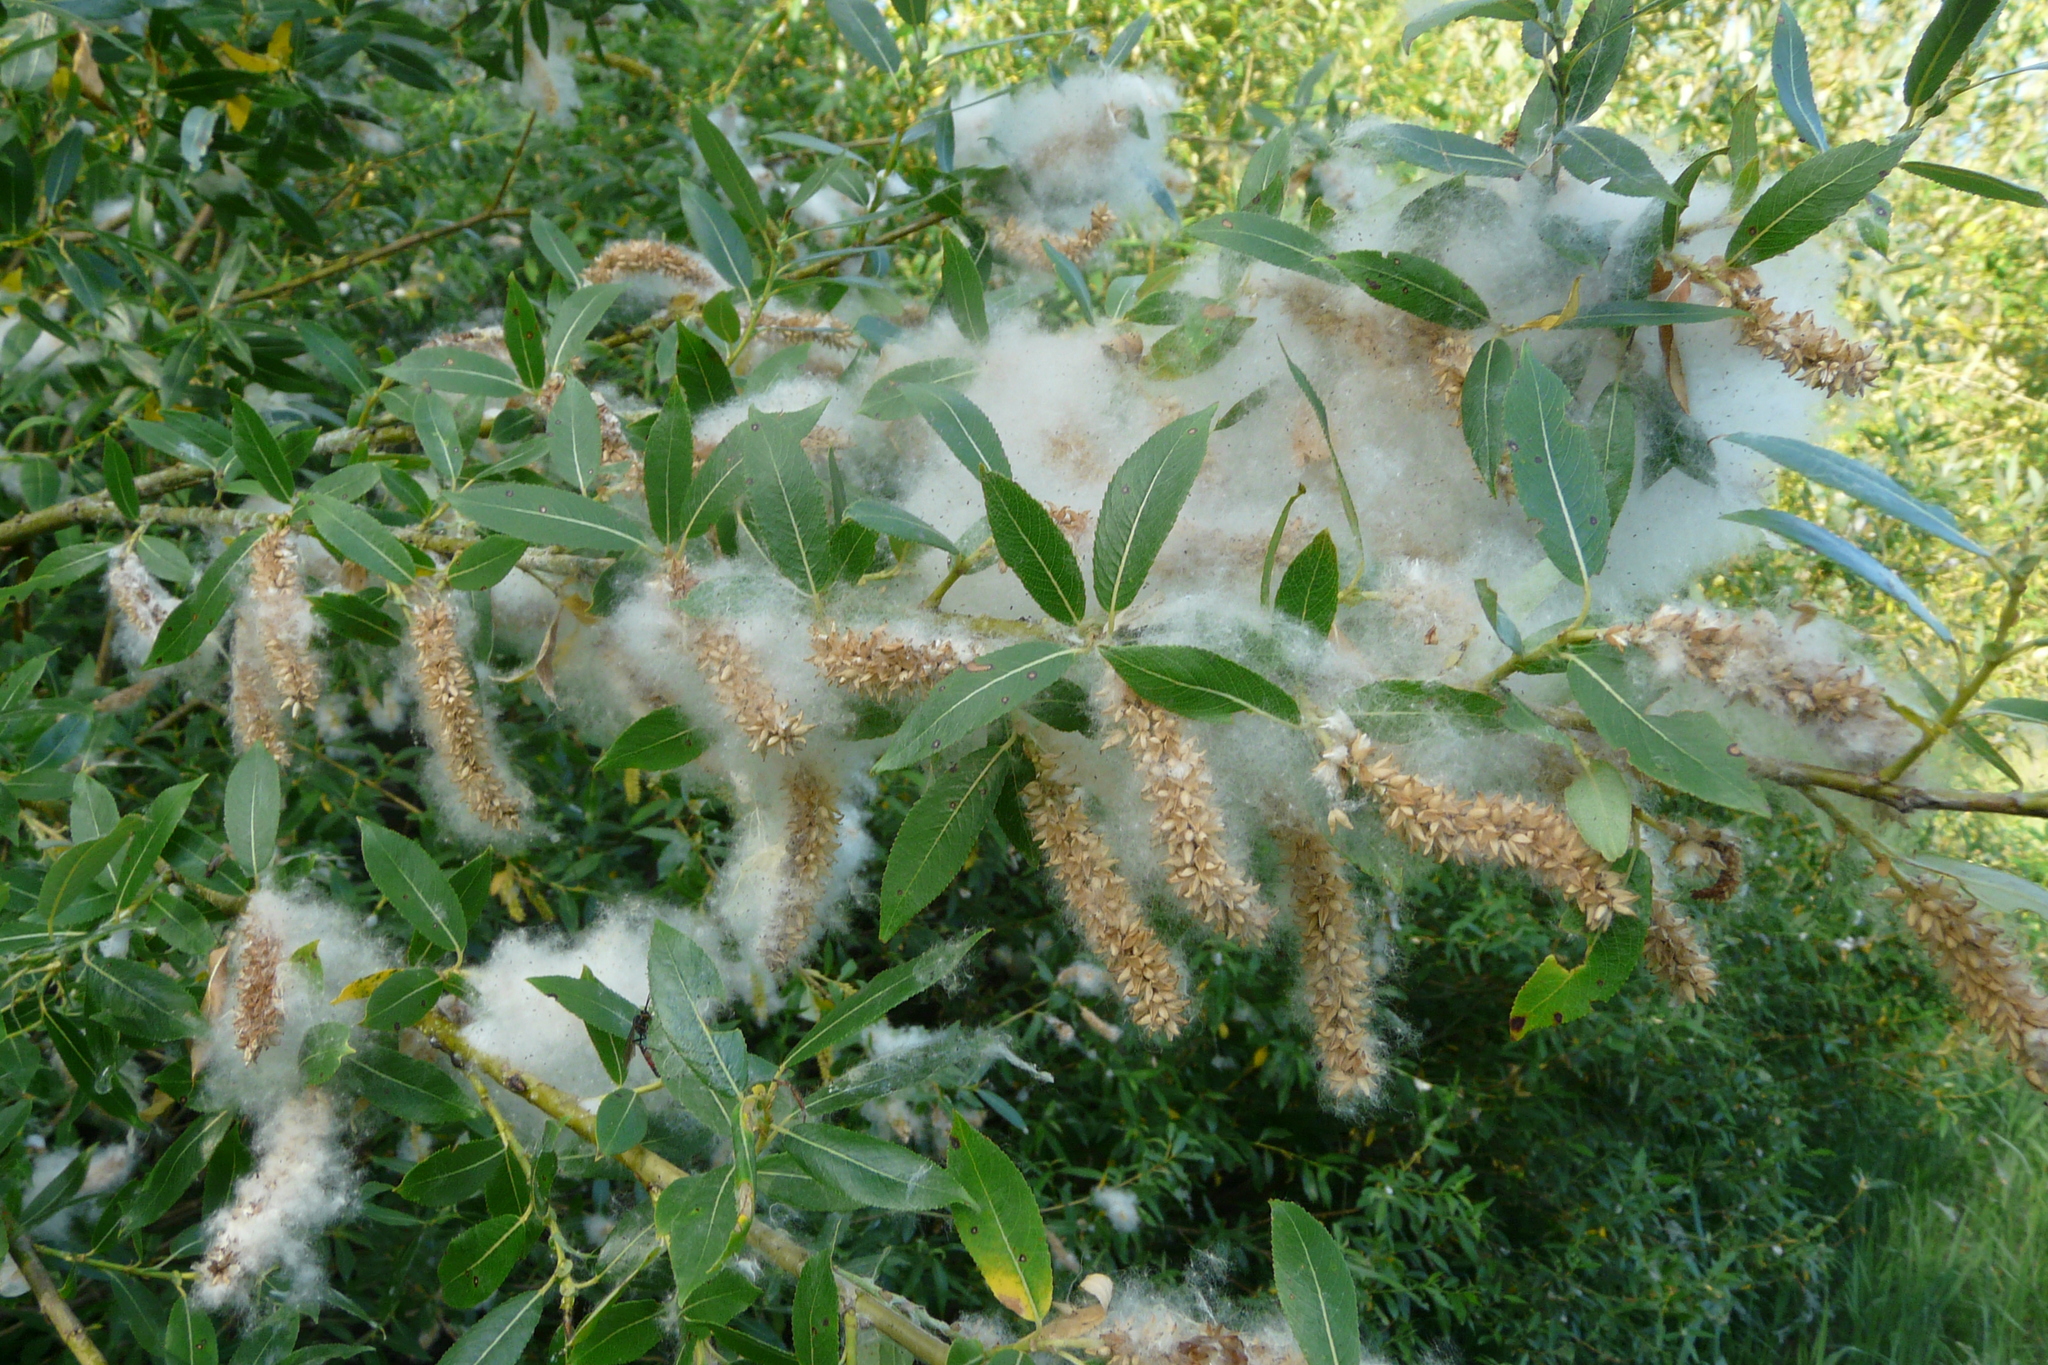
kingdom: Plantae
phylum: Tracheophyta
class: Magnoliopsida
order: Malpighiales
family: Salicaceae
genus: Salix
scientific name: Salix triandra
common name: Almond willow
